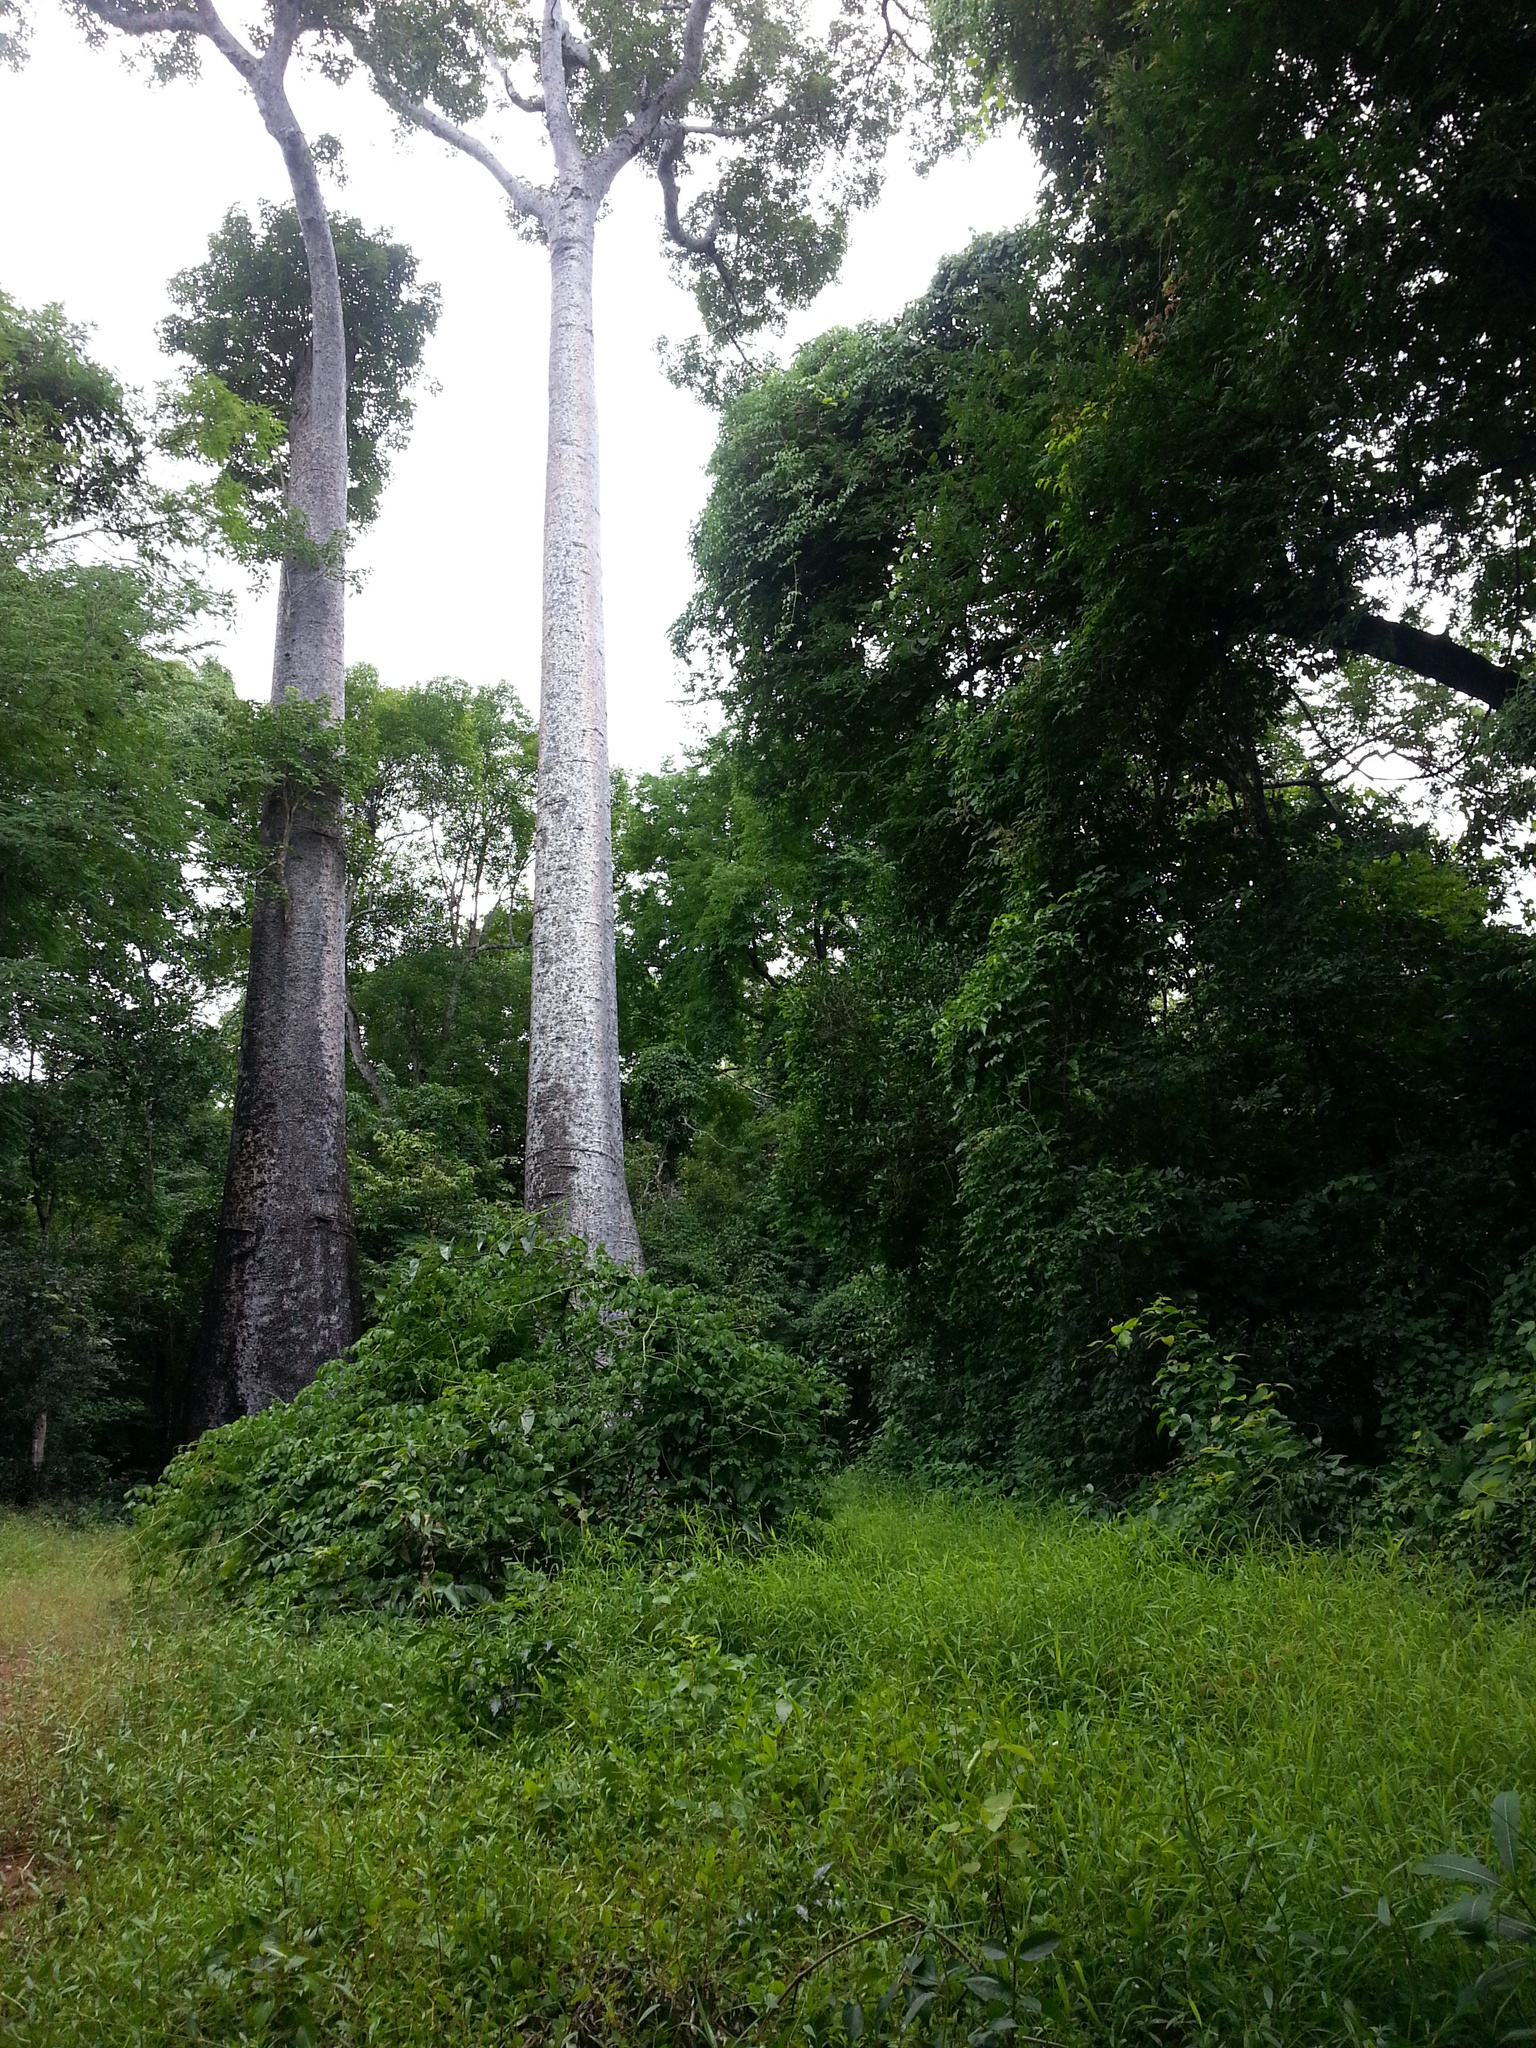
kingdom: Plantae
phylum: Tracheophyta
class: Magnoliopsida
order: Malvales
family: Malvaceae
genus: Adansonia
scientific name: Adansonia za
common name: Za baobab
